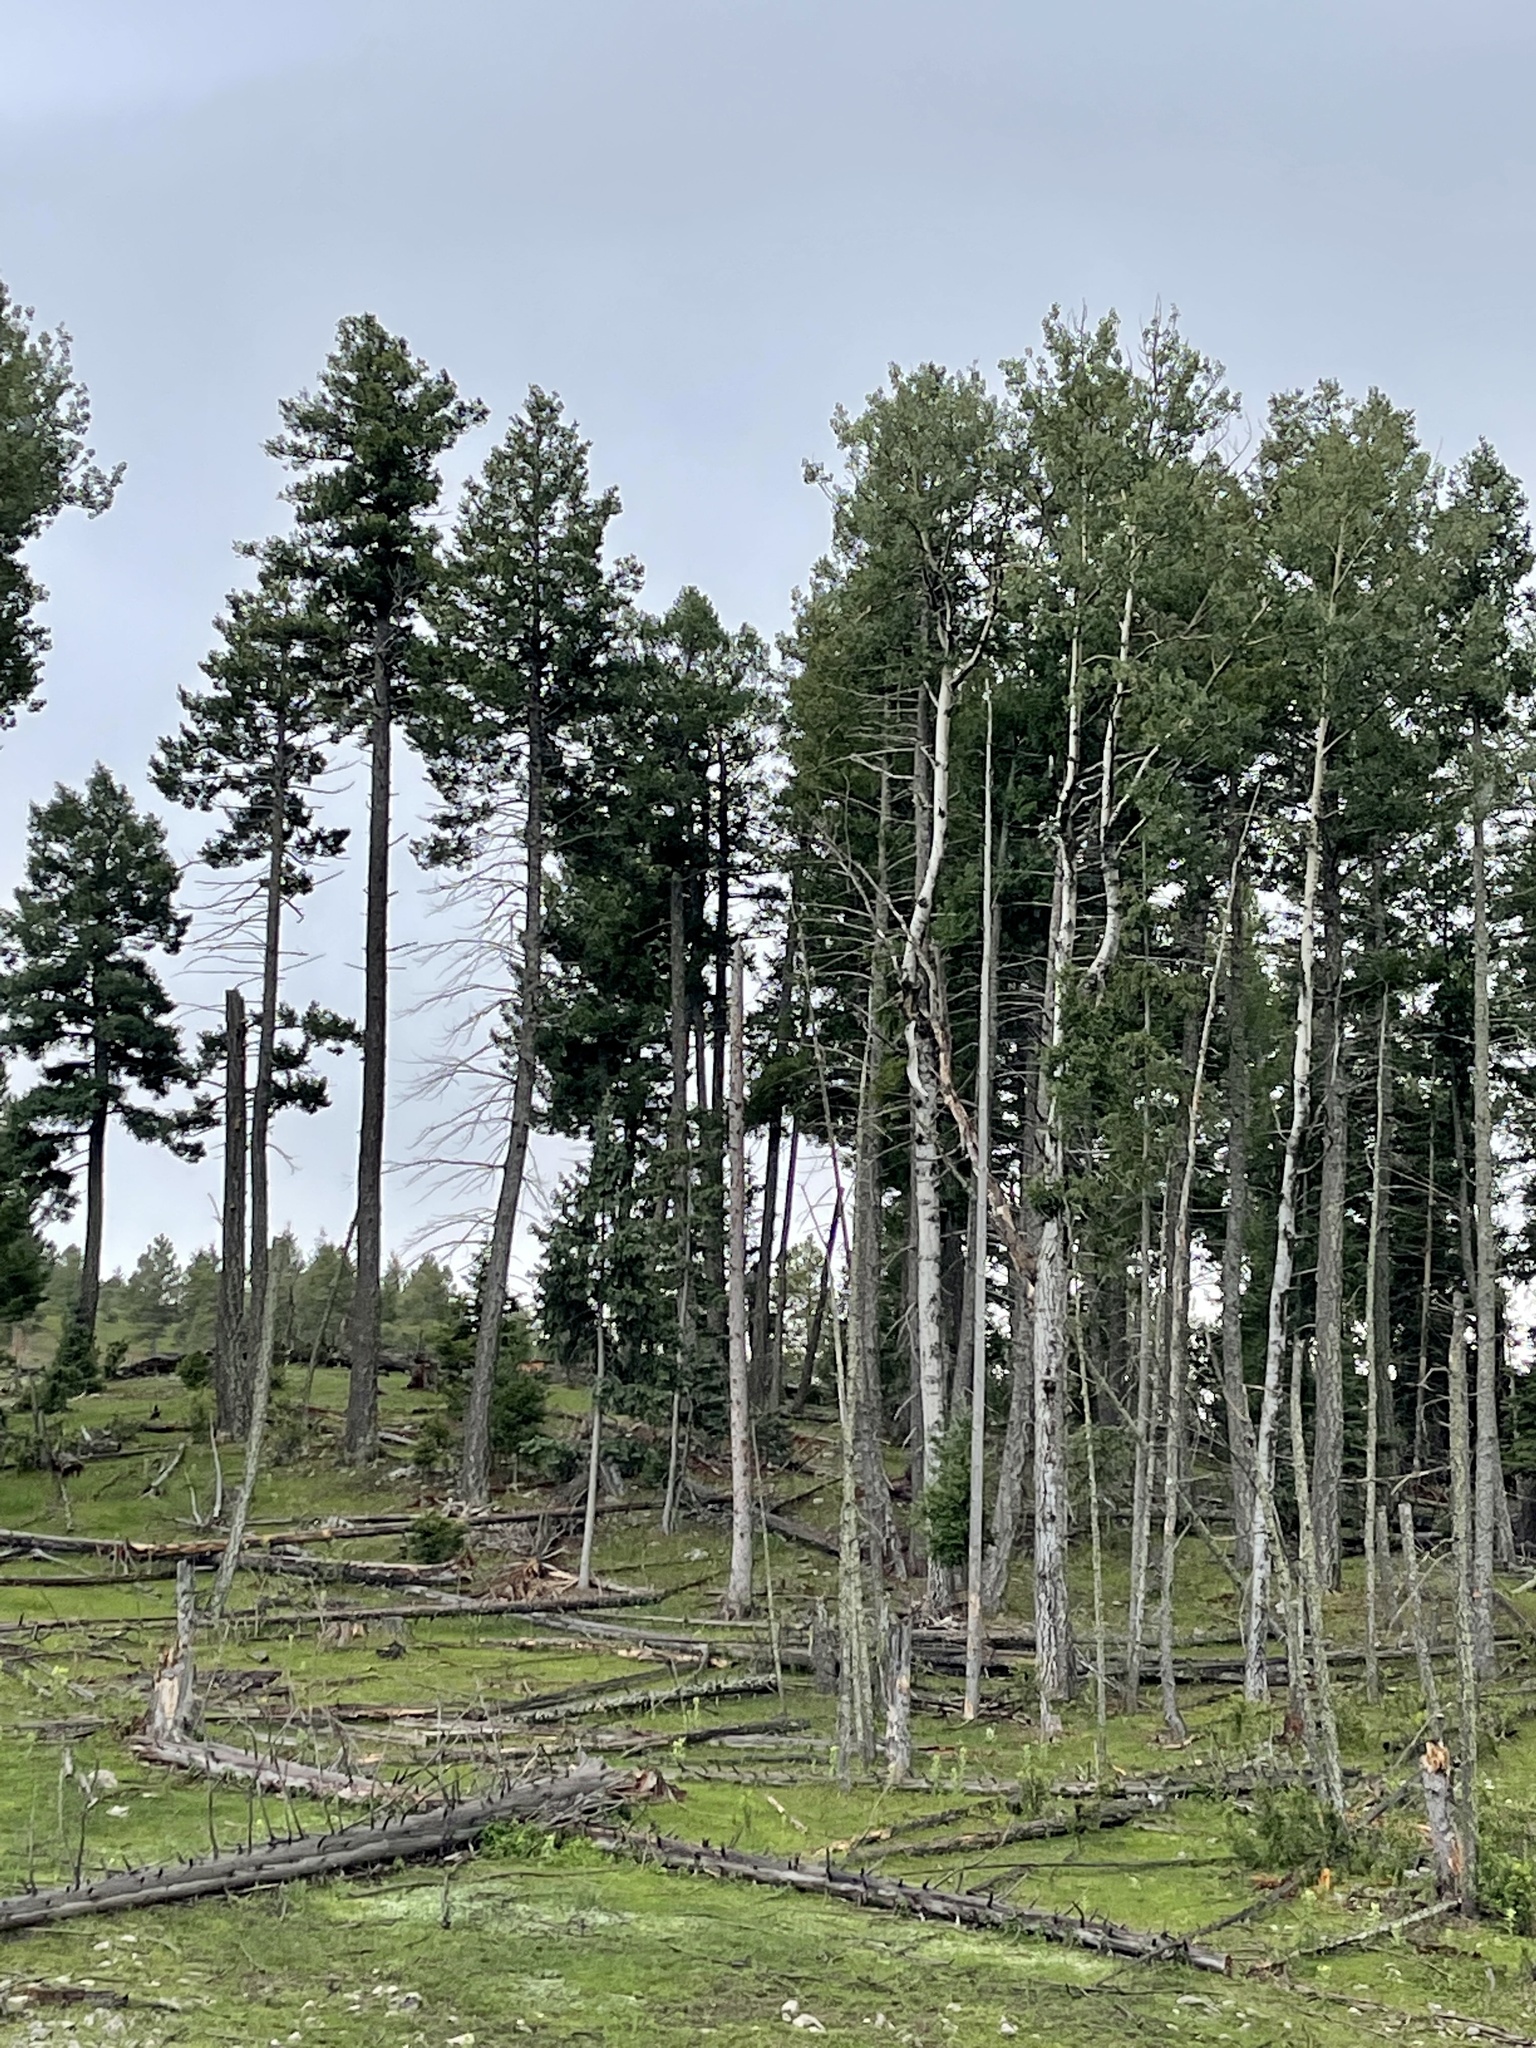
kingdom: Plantae
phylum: Tracheophyta
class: Magnoliopsida
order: Malpighiales
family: Salicaceae
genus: Populus
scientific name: Populus tremuloides
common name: Quaking aspen
